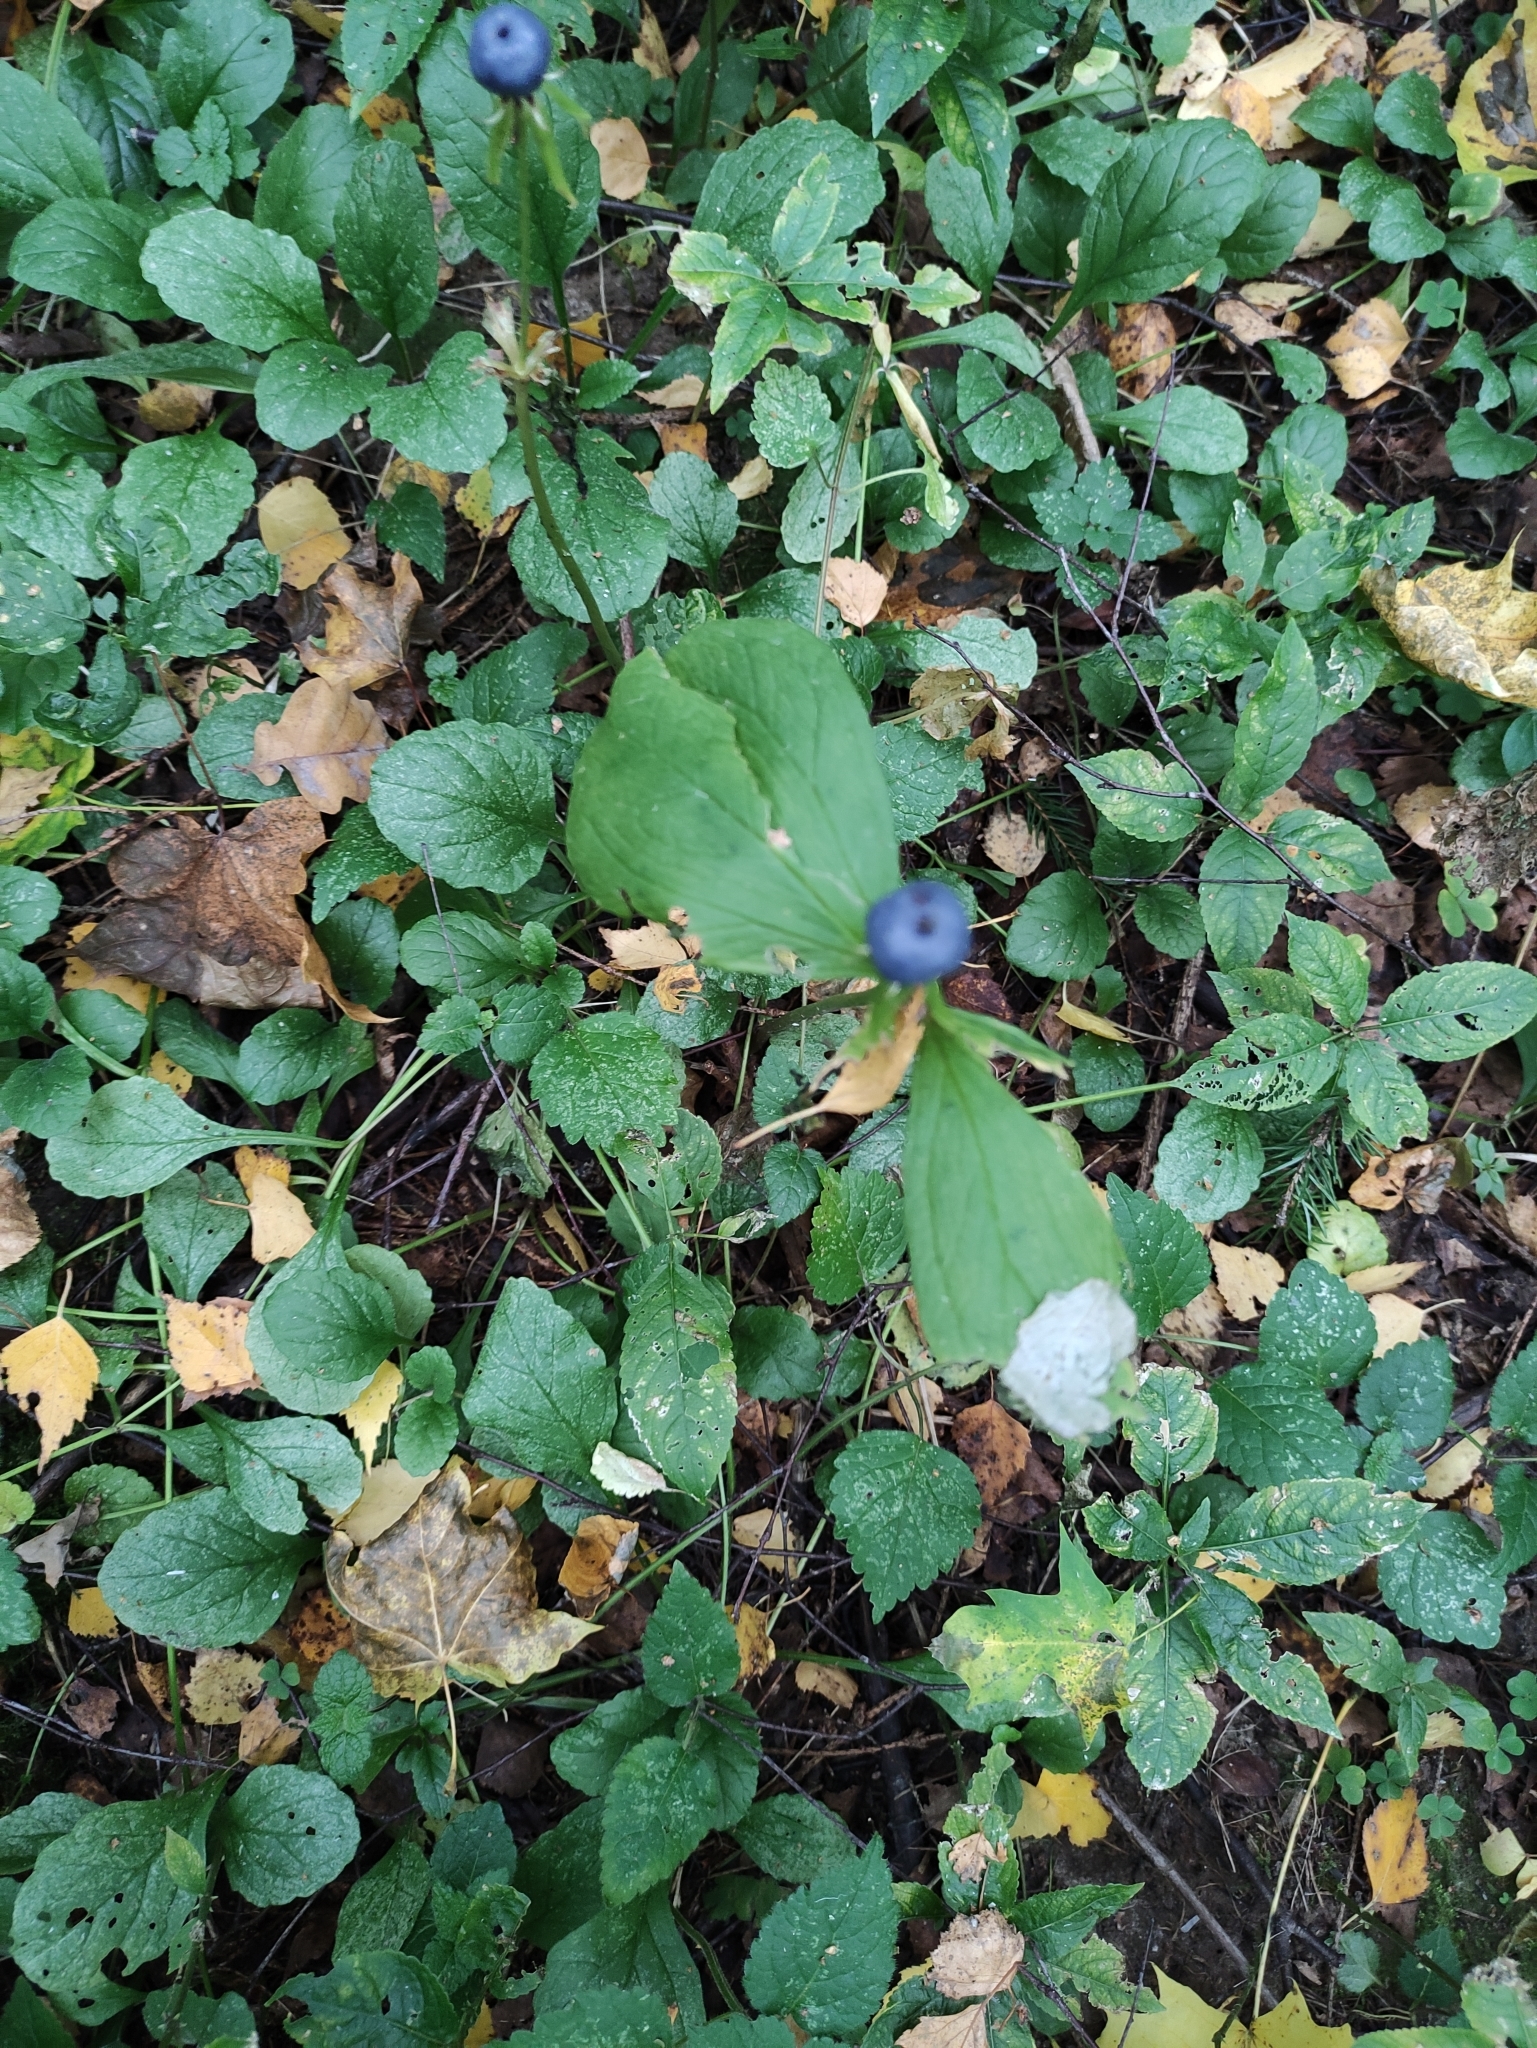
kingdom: Plantae
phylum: Tracheophyta
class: Liliopsida
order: Liliales
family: Melanthiaceae
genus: Paris
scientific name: Paris quadrifolia
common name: Herb-paris
